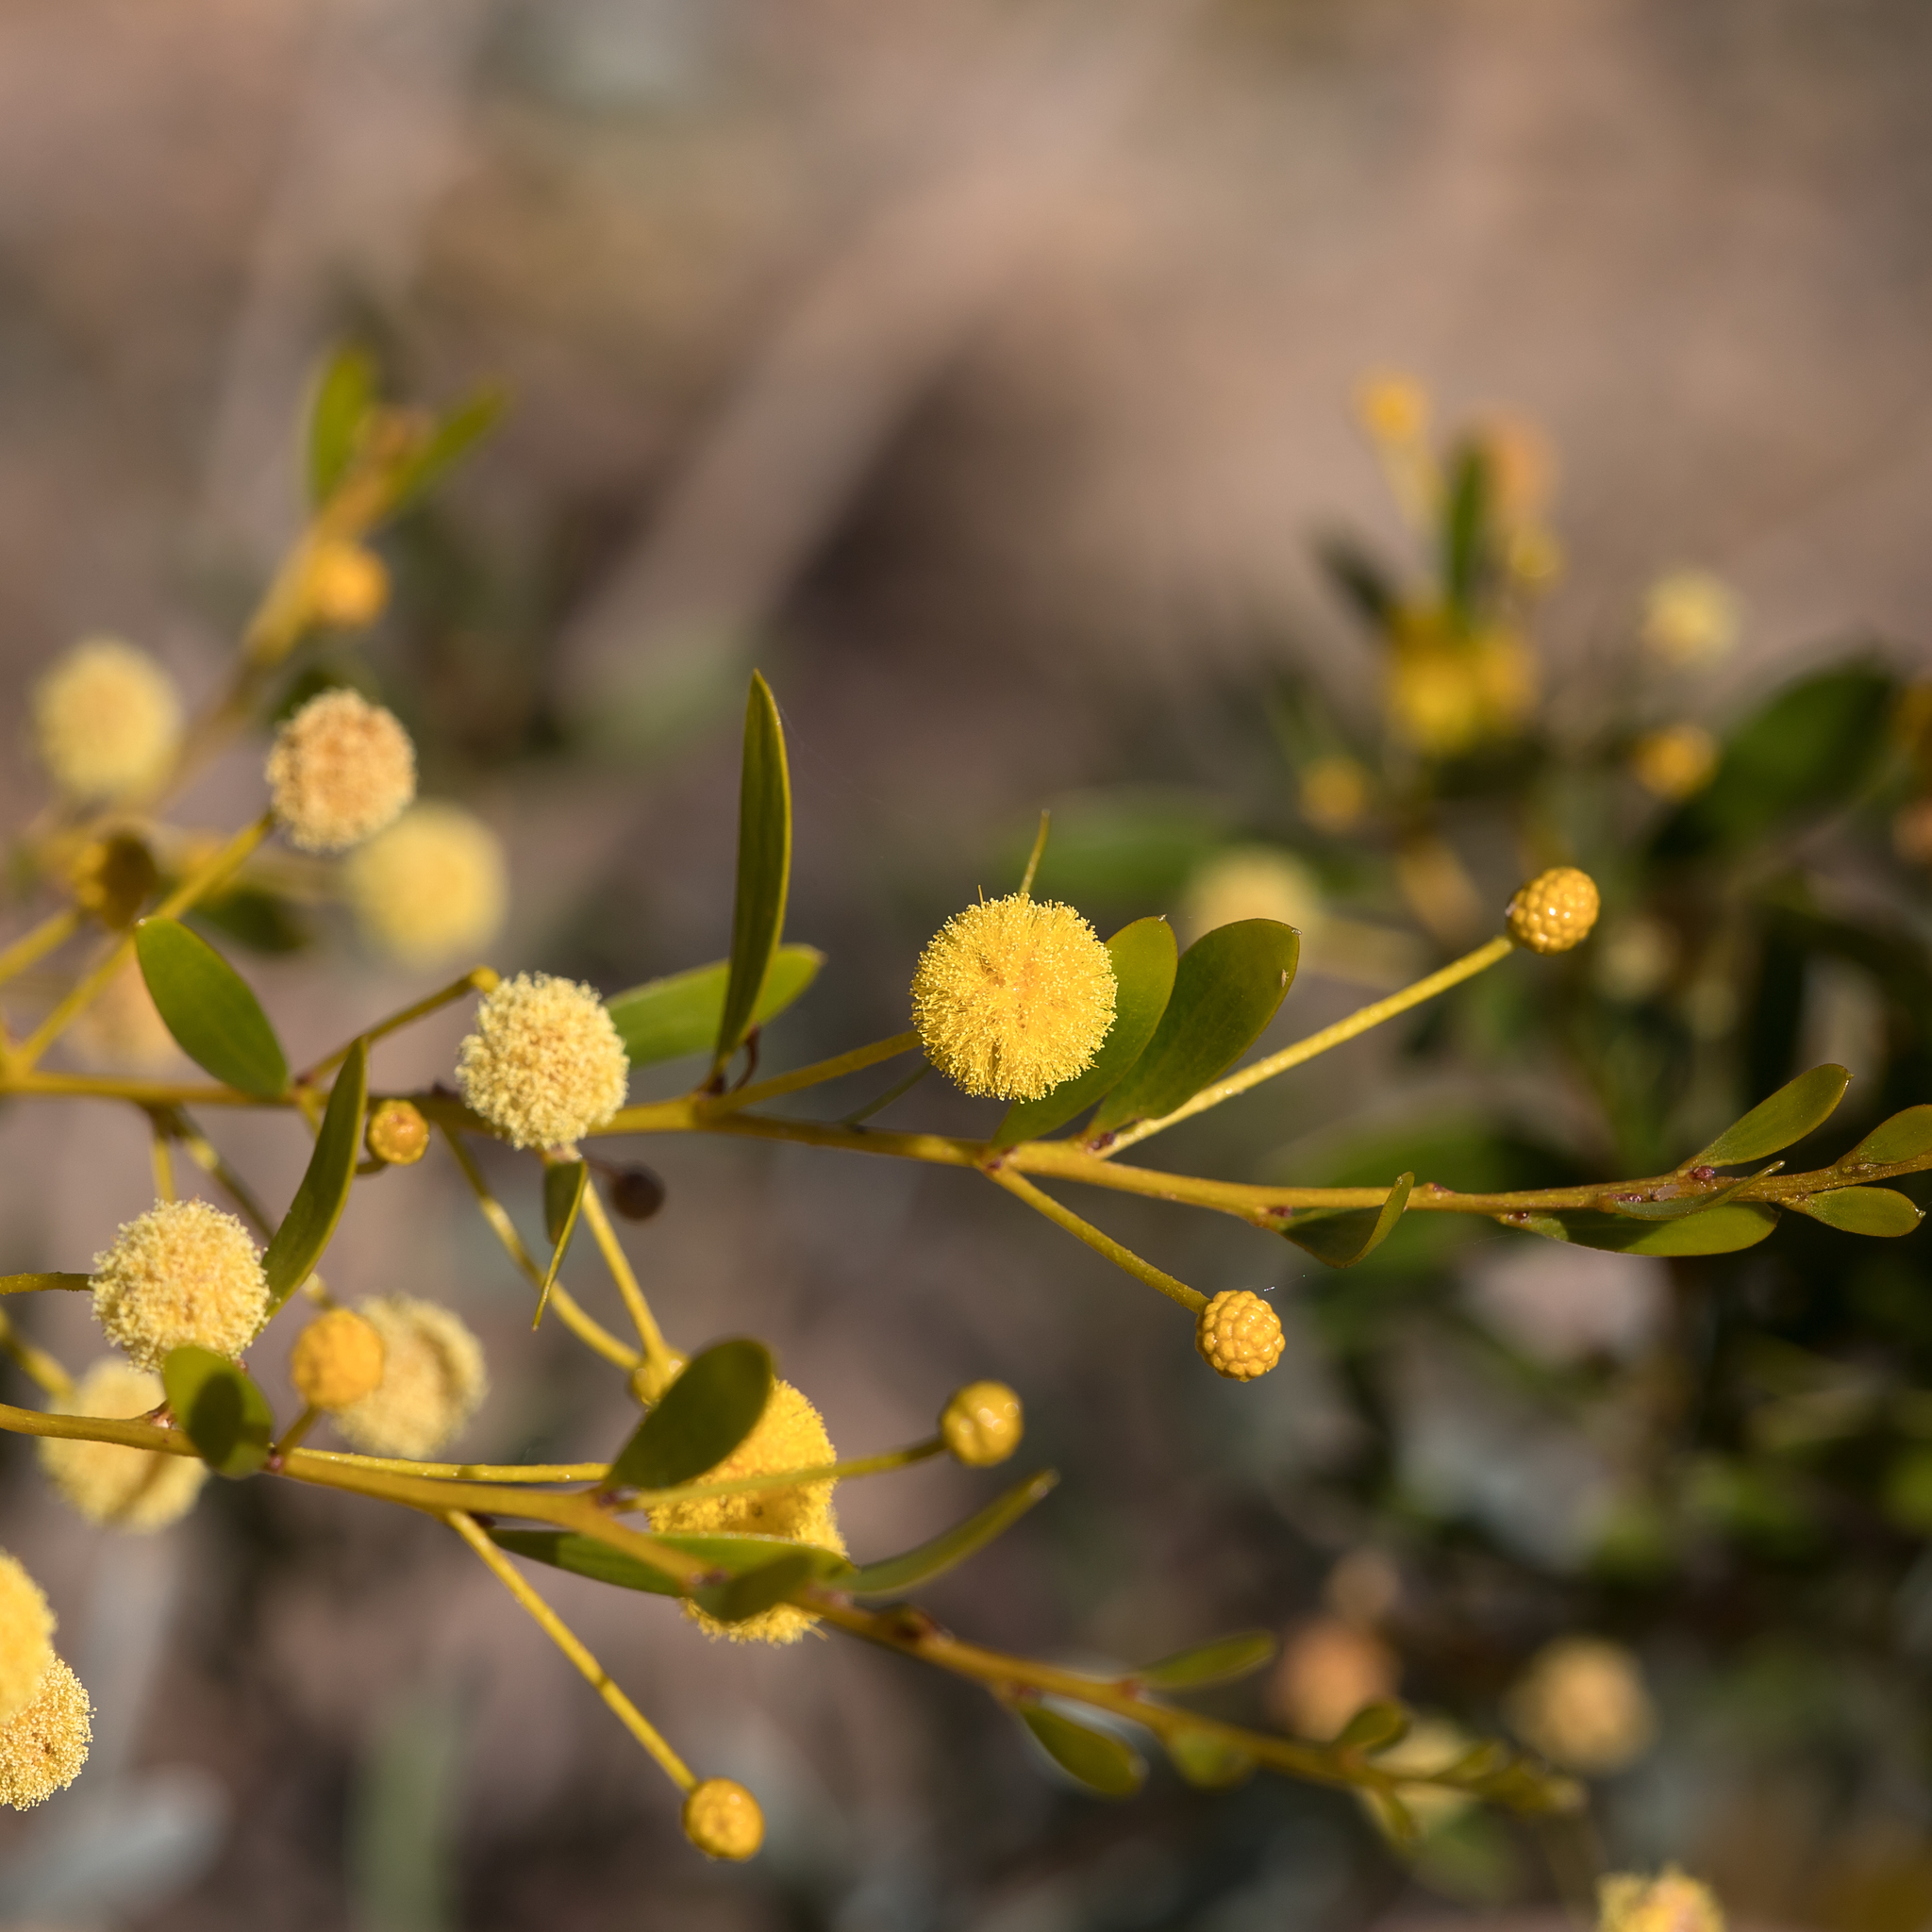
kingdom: Plantae
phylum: Tracheophyta
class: Magnoliopsida
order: Fabales
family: Fabaceae
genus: Acacia
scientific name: Acacia melleodora
